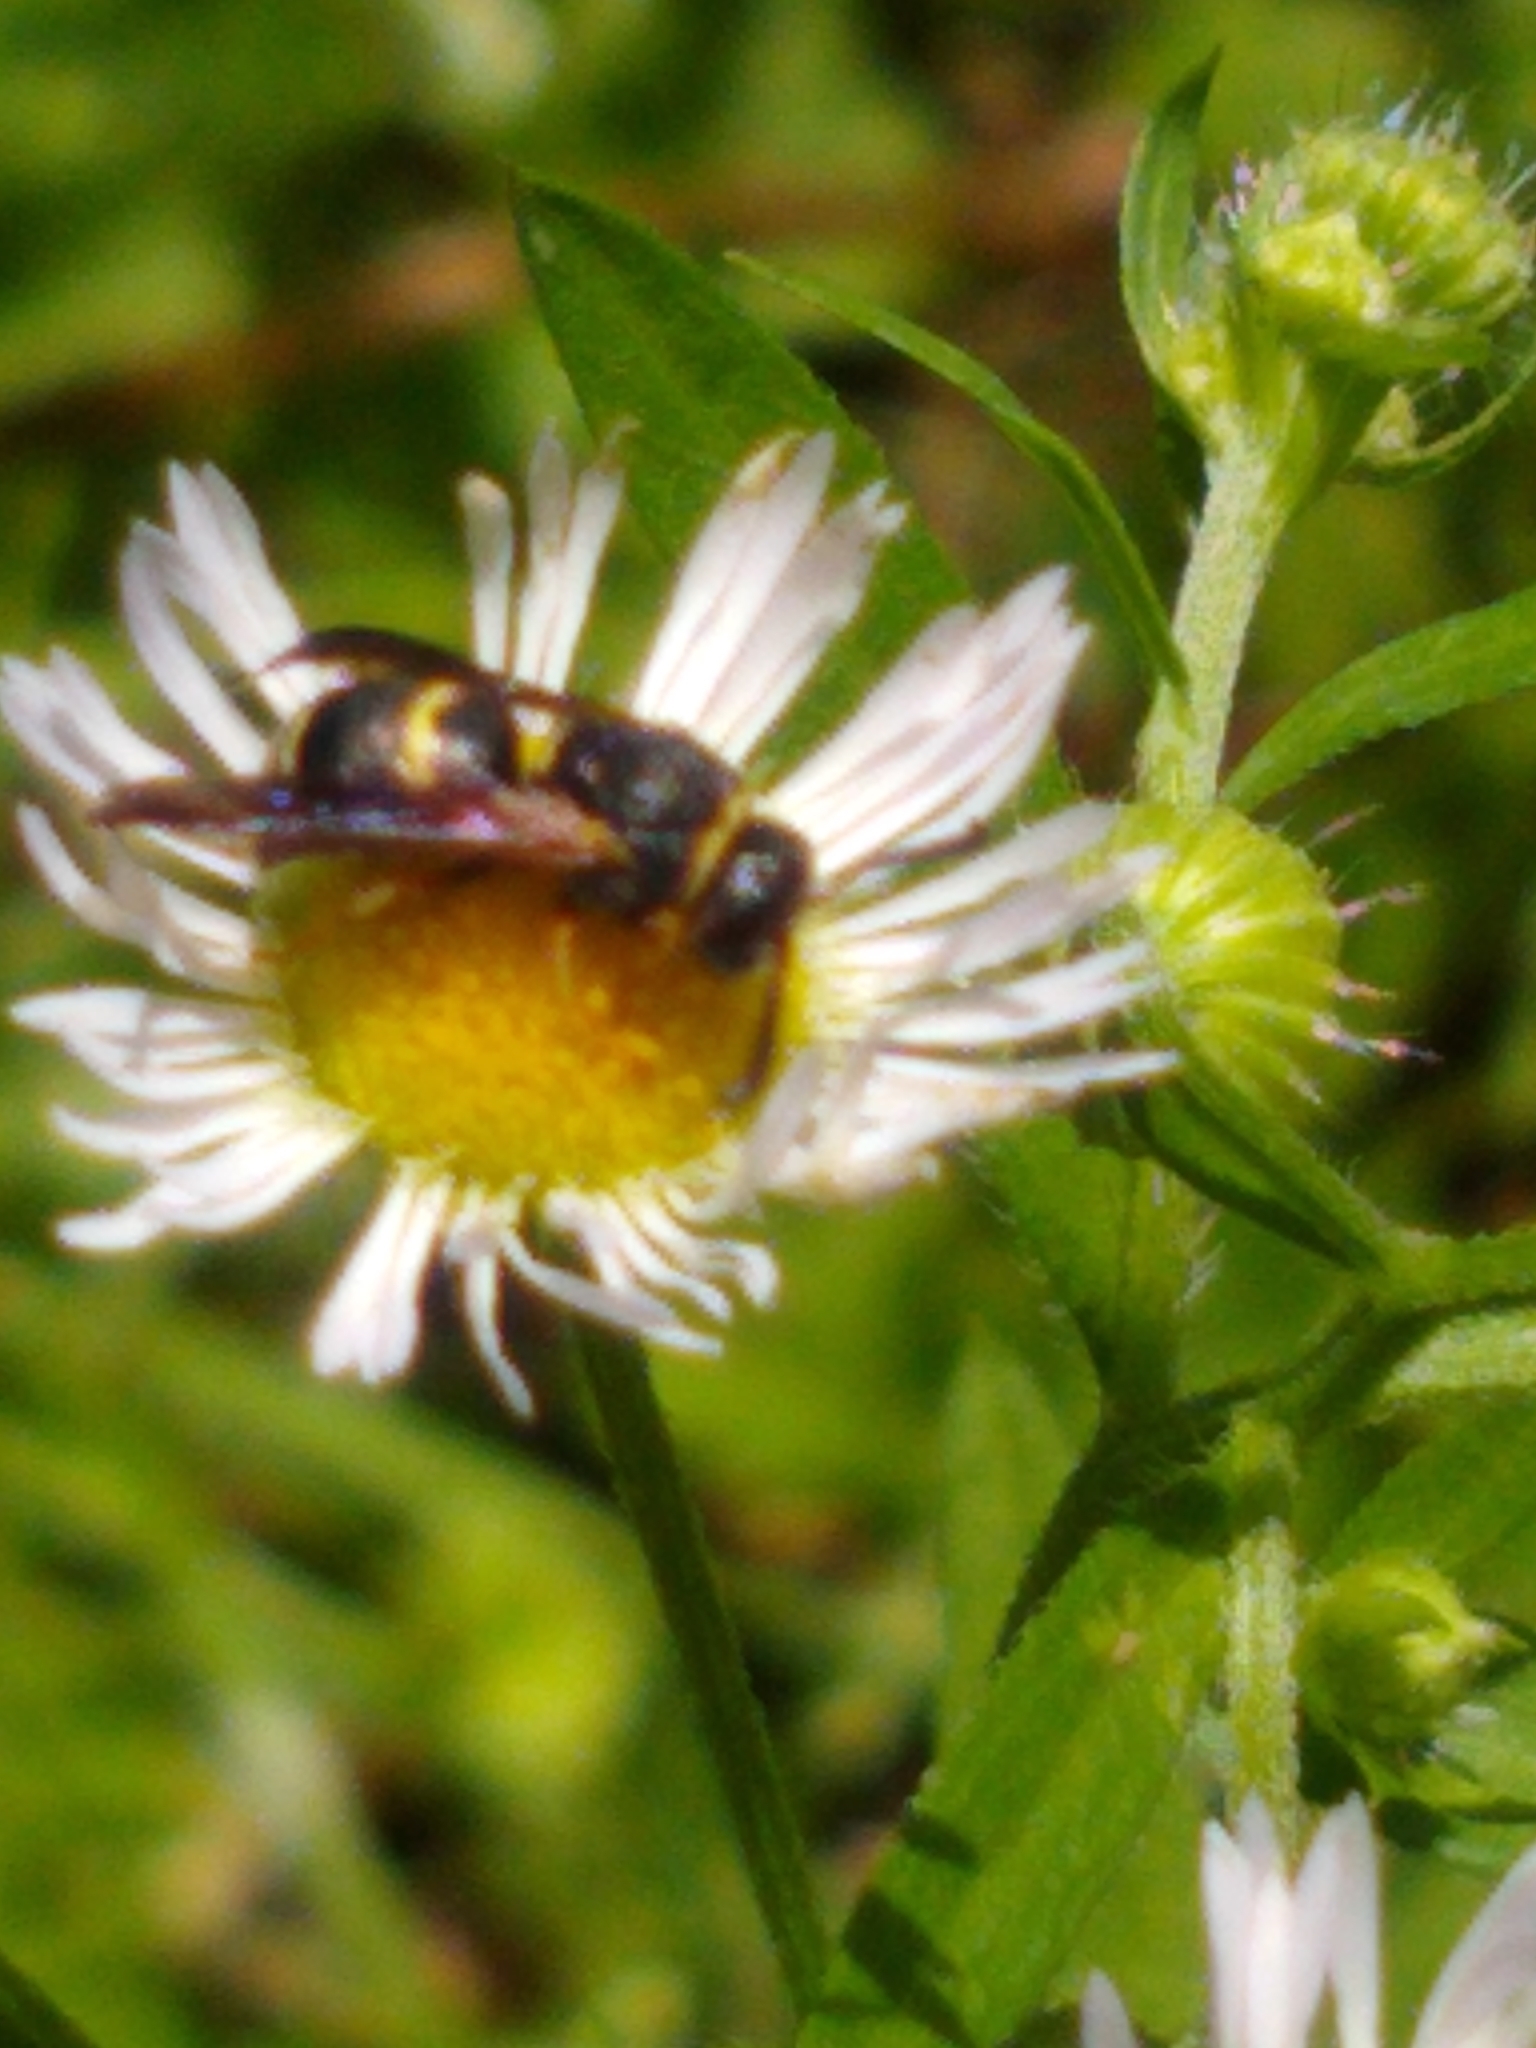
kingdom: Animalia
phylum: Arthropoda
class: Insecta
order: Hymenoptera
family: Eumenidae
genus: Euodynerus
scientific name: Euodynerus hidalgo
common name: Wasp
